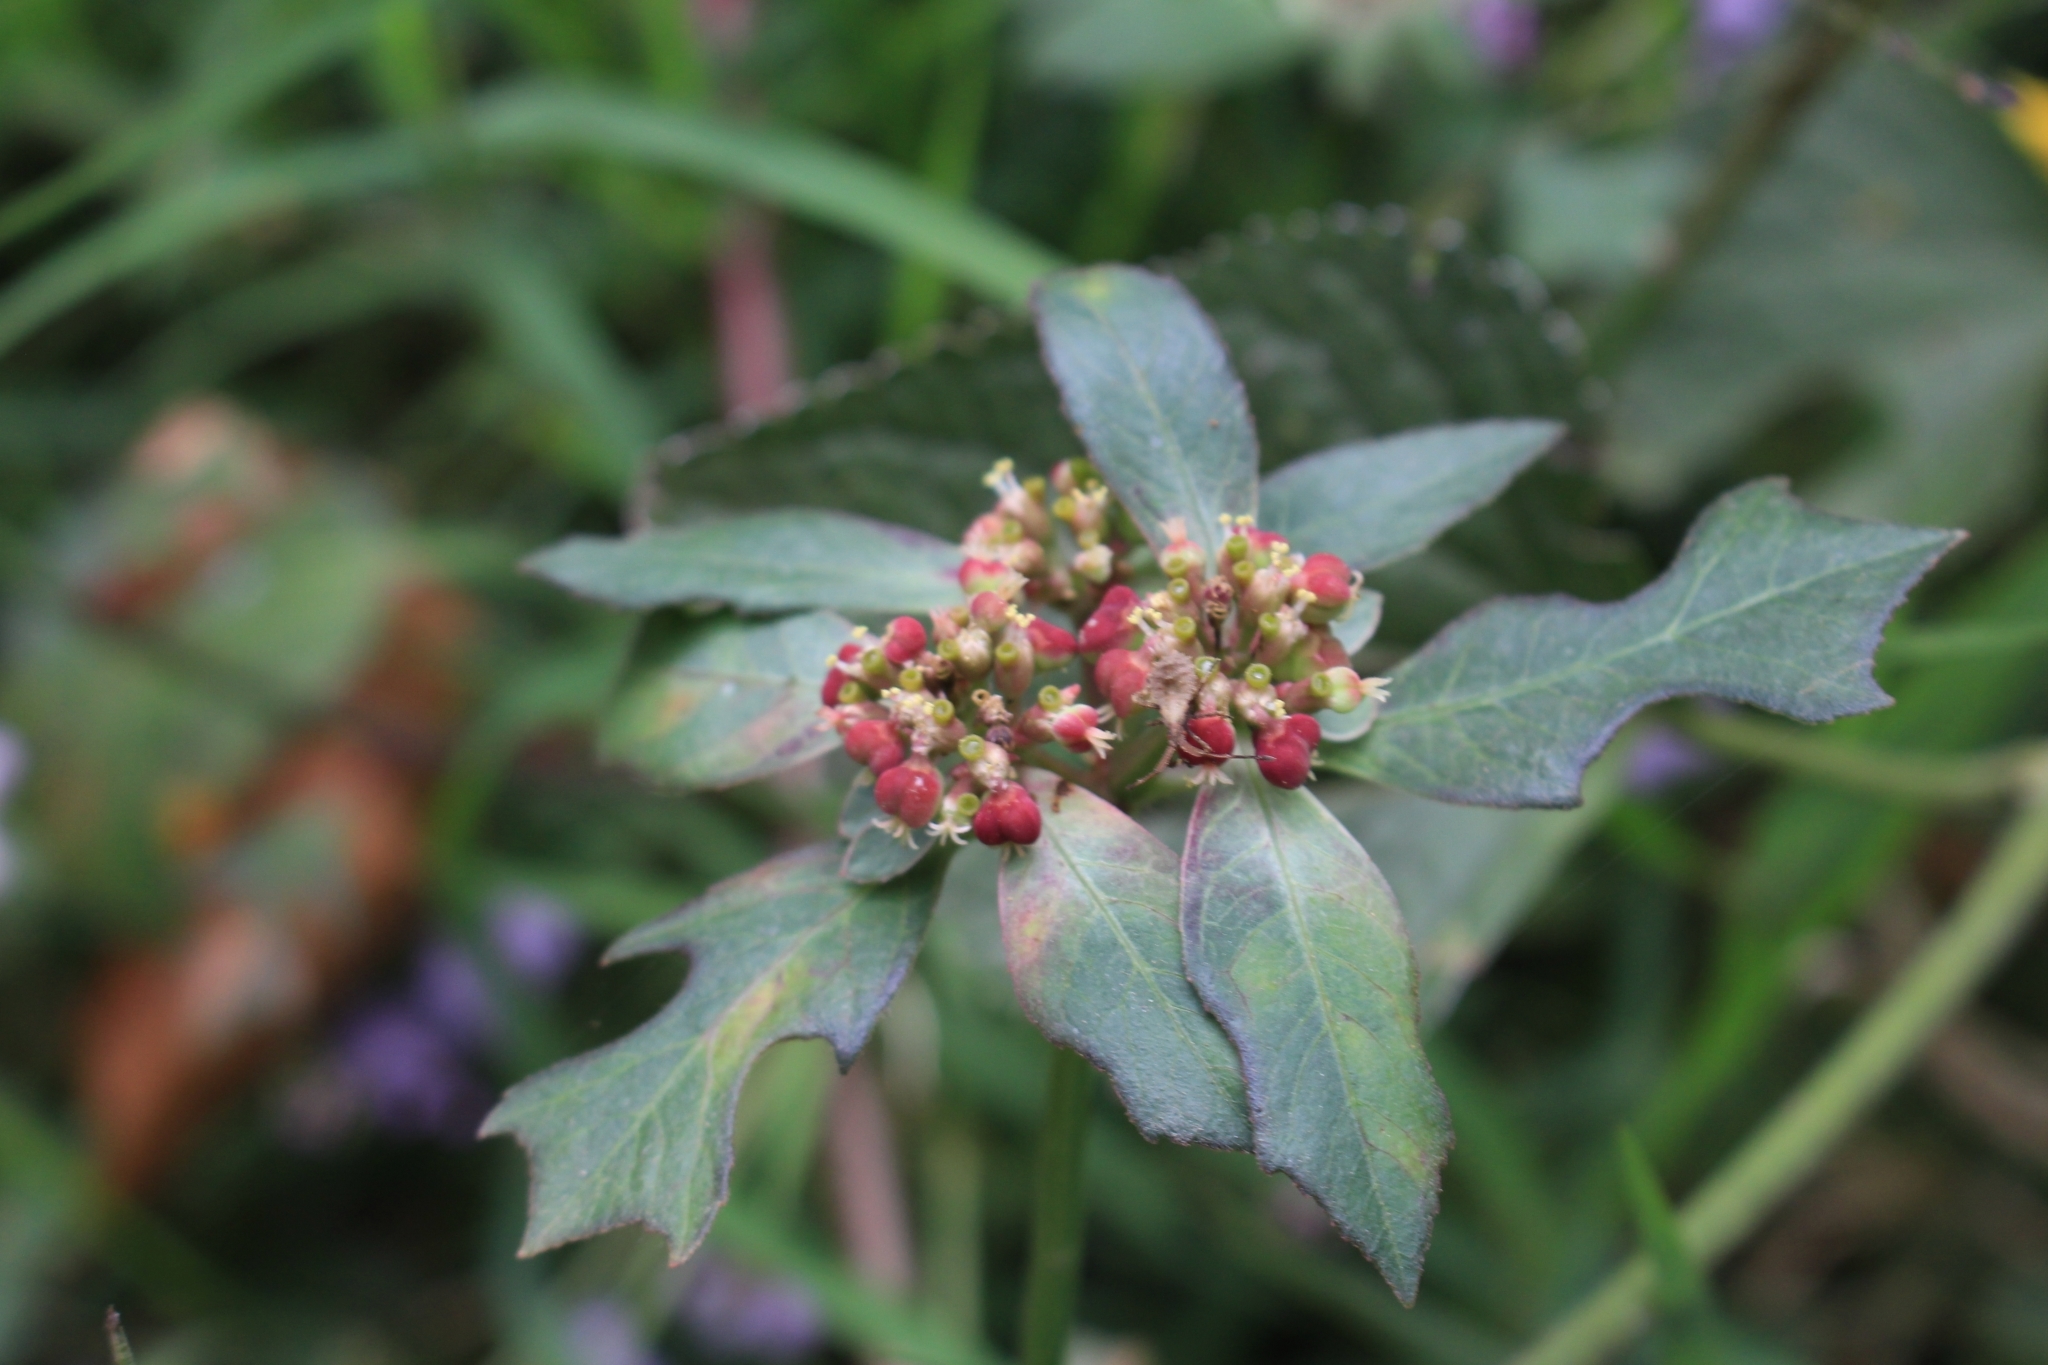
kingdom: Plantae
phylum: Tracheophyta
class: Magnoliopsida
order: Malpighiales
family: Euphorbiaceae
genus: Euphorbia
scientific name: Euphorbia heterophylla
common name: Mexican fireplant
